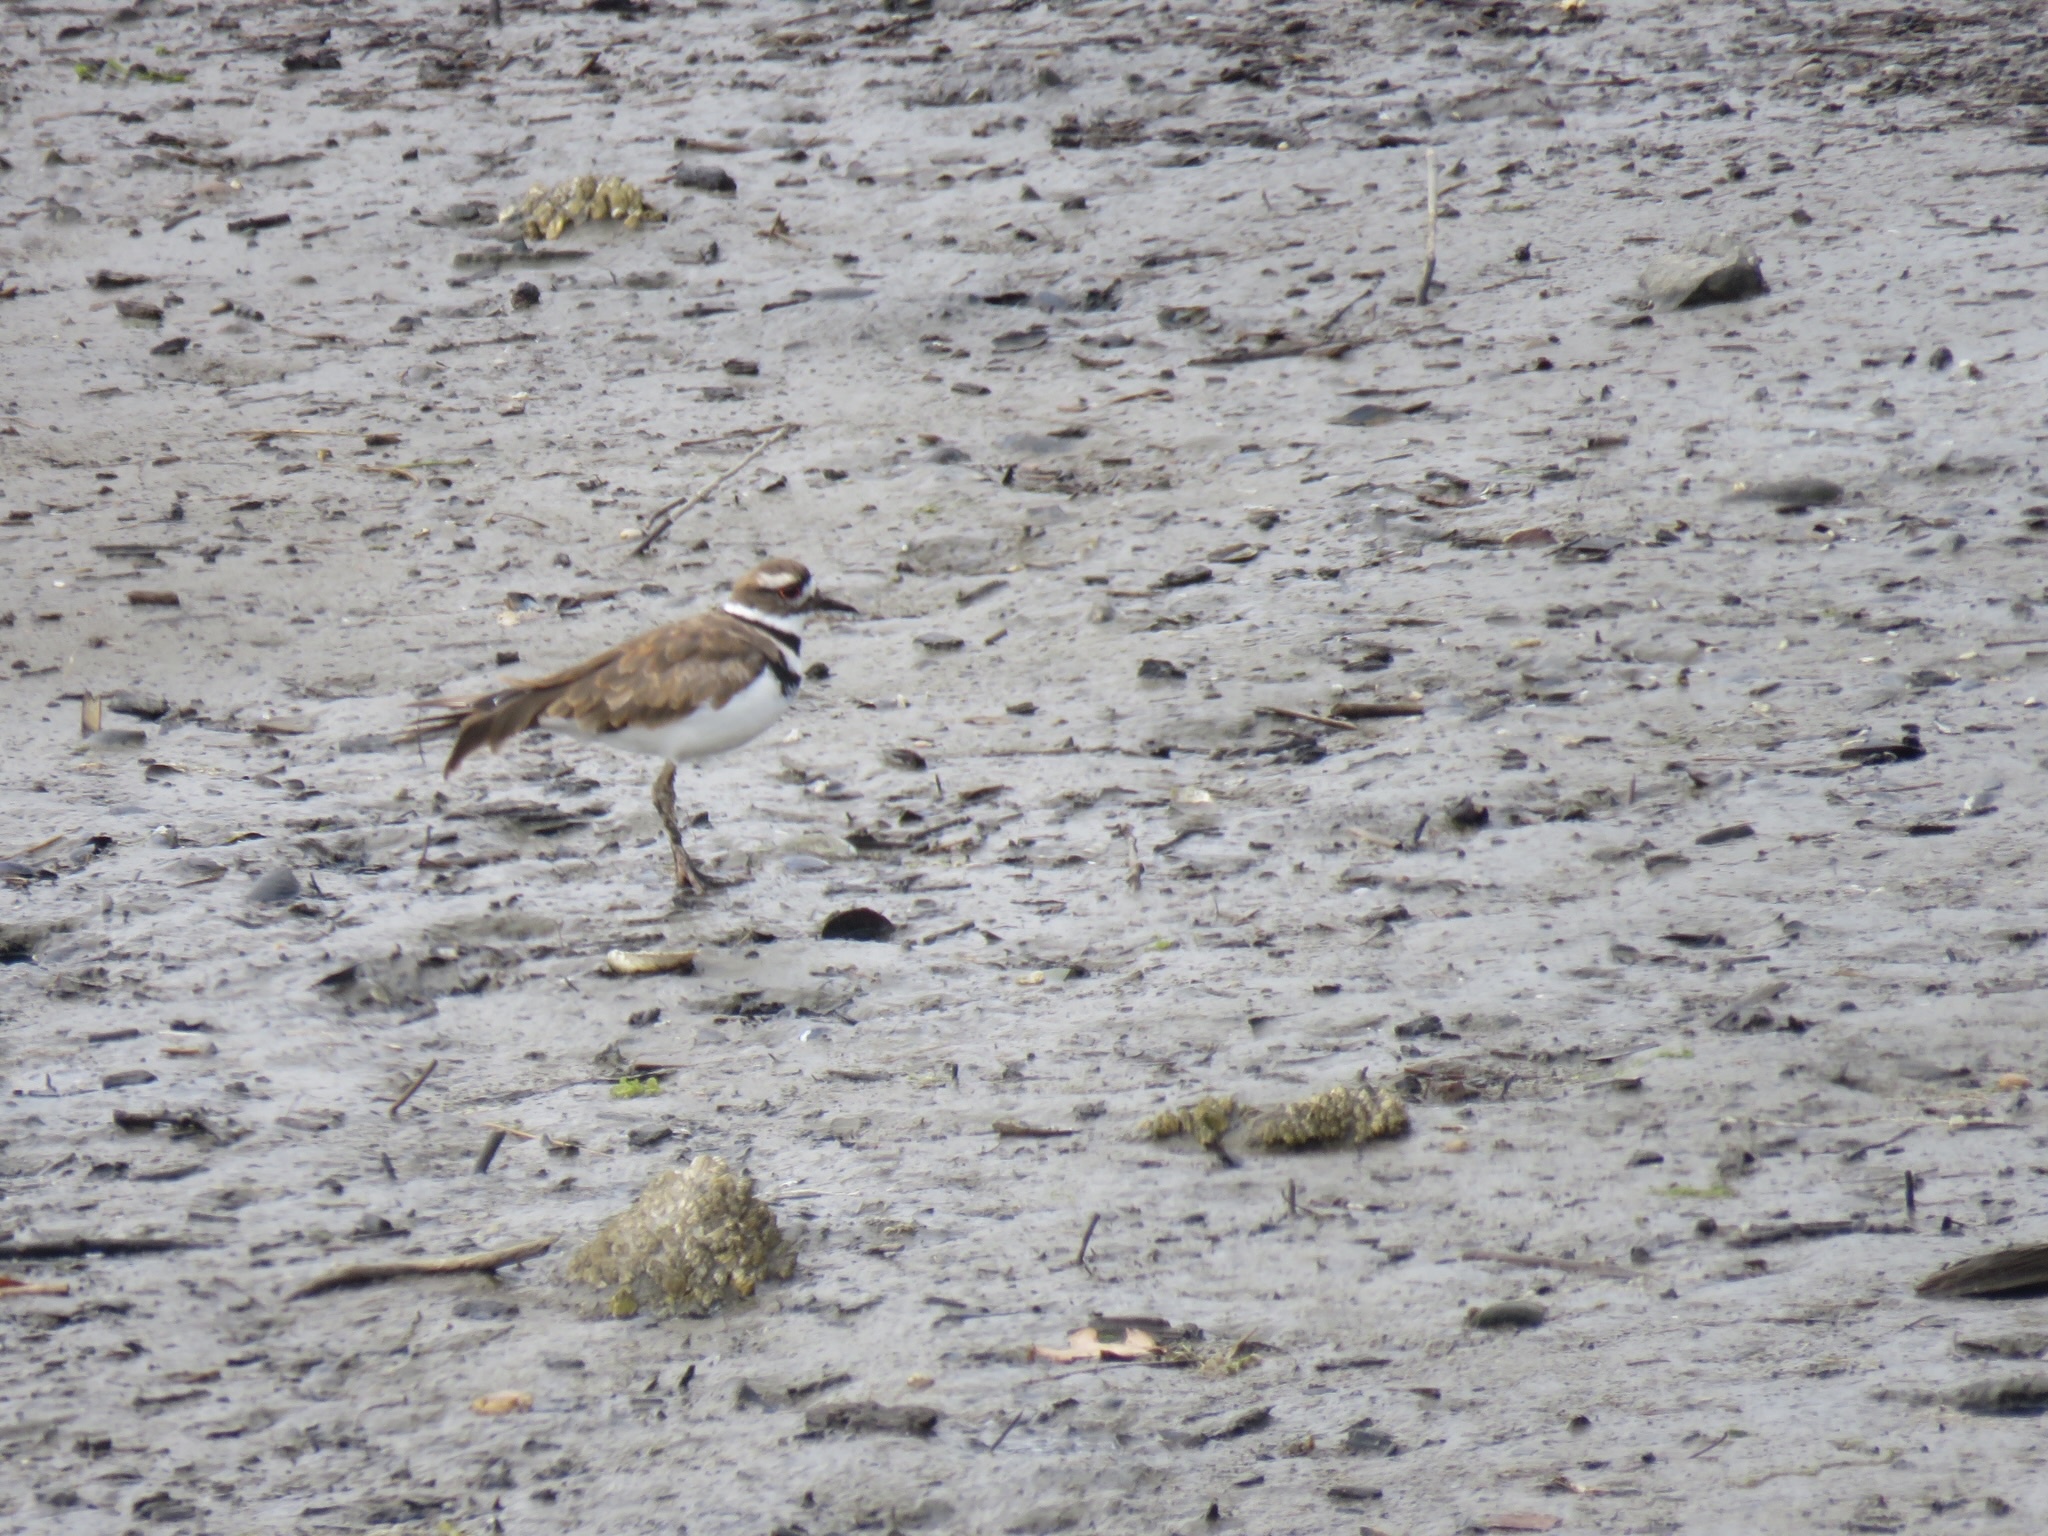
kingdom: Animalia
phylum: Chordata
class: Aves
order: Charadriiformes
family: Charadriidae
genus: Charadrius
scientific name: Charadrius vociferus
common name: Killdeer
